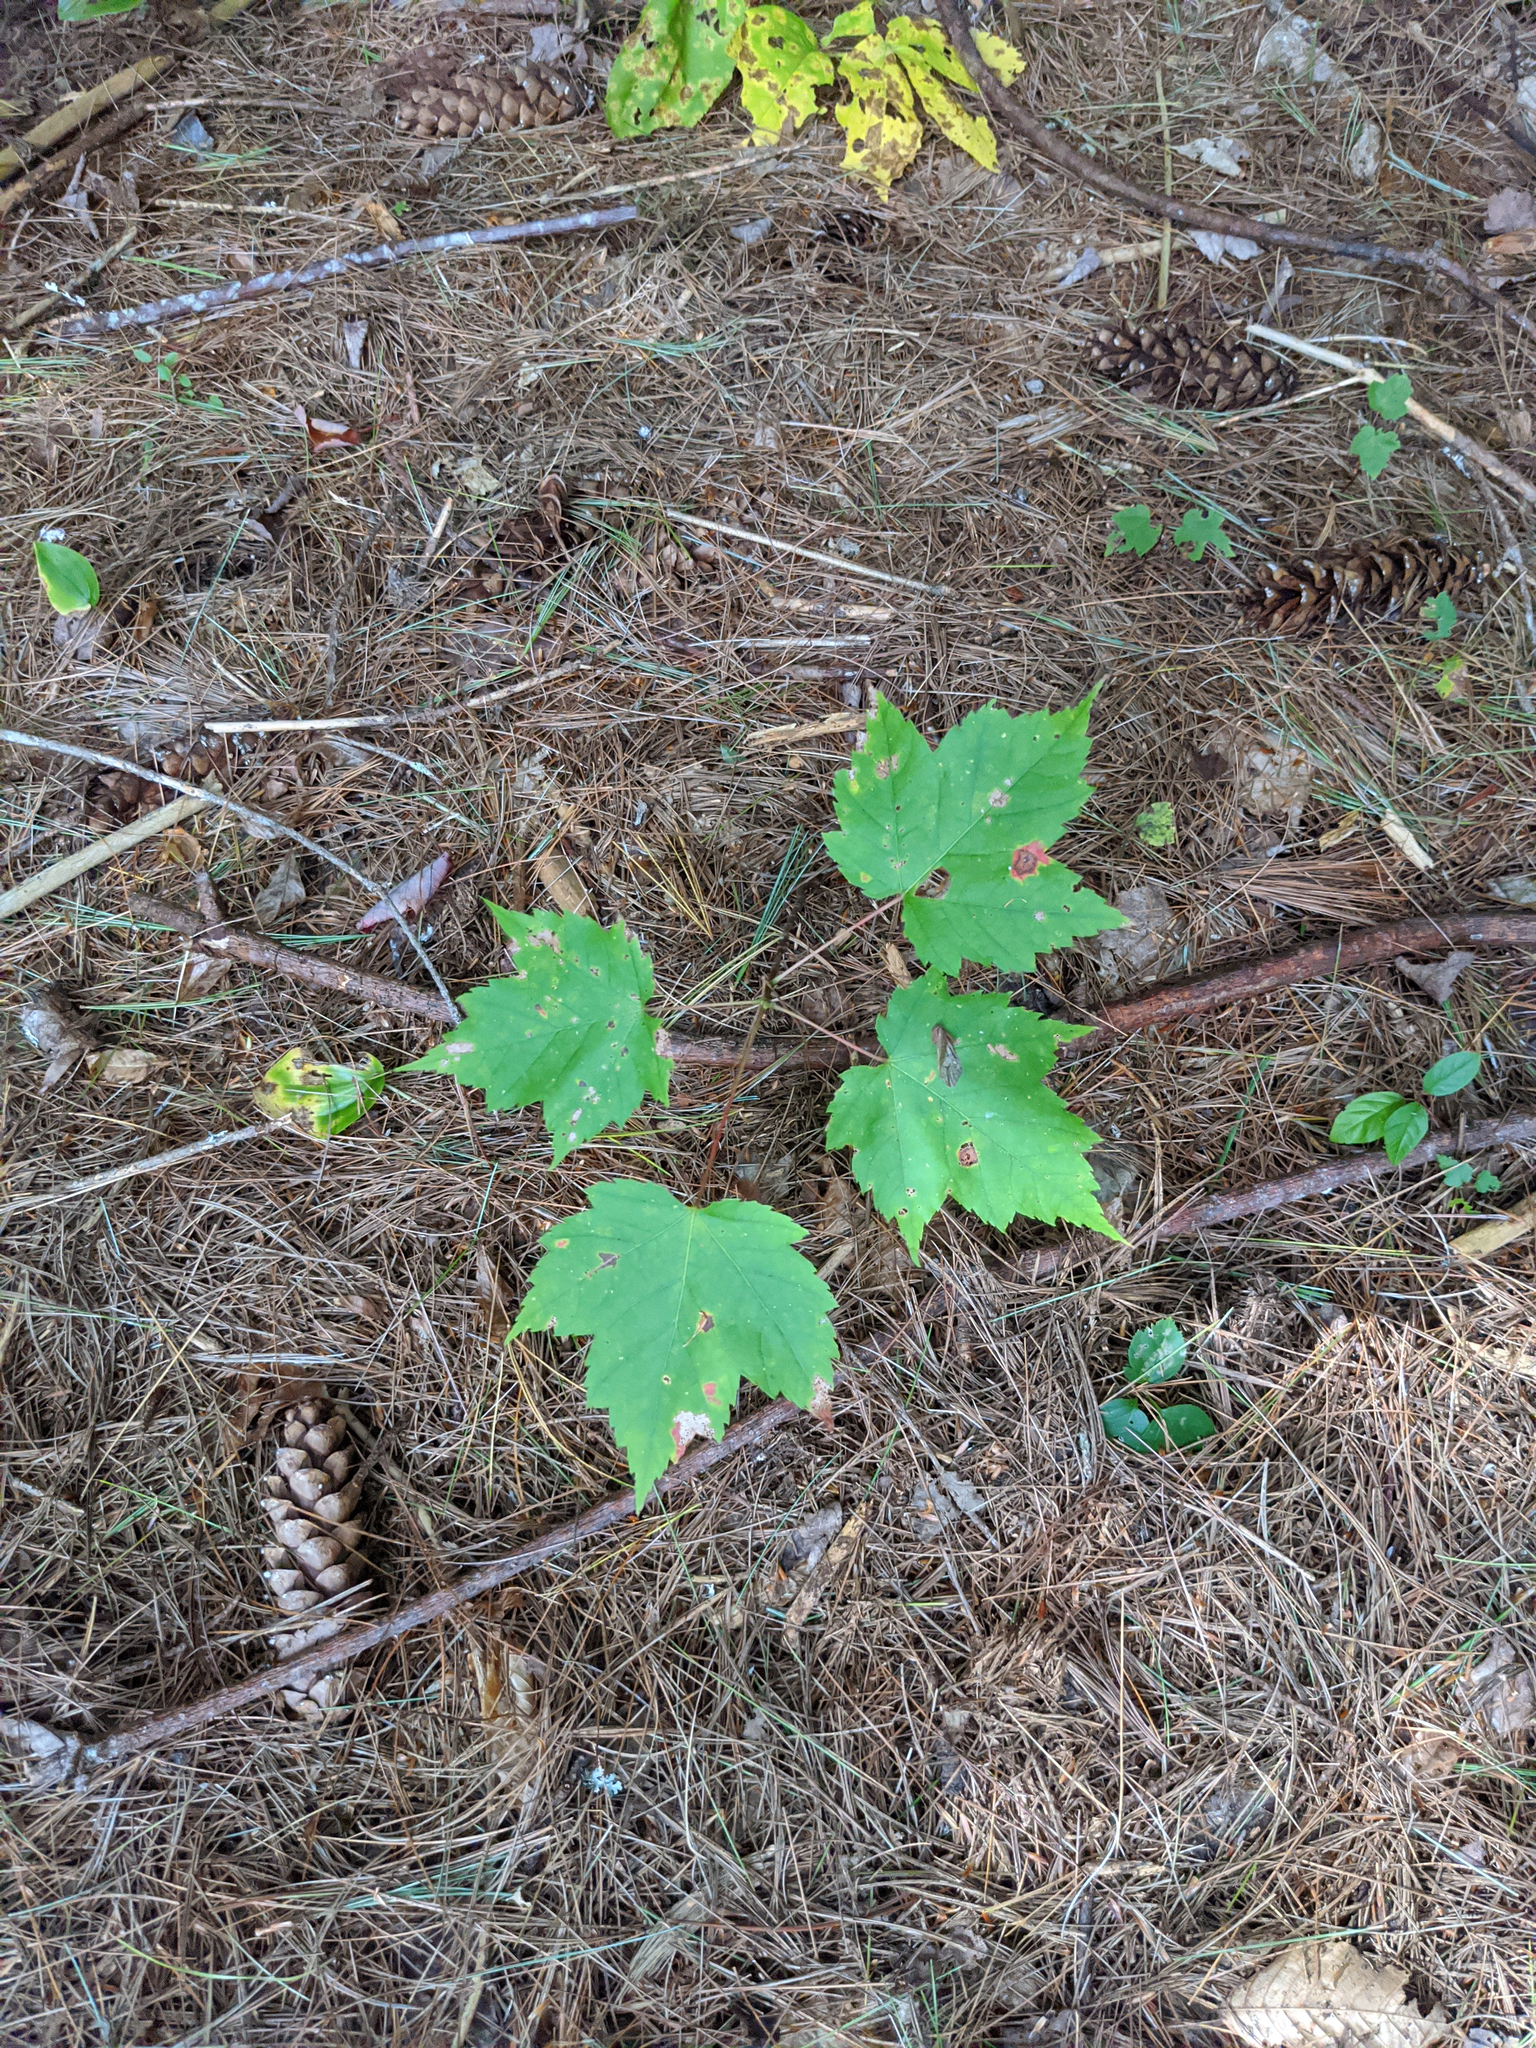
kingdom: Plantae
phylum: Tracheophyta
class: Magnoliopsida
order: Sapindales
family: Sapindaceae
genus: Acer
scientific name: Acer rubrum
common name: Red maple
